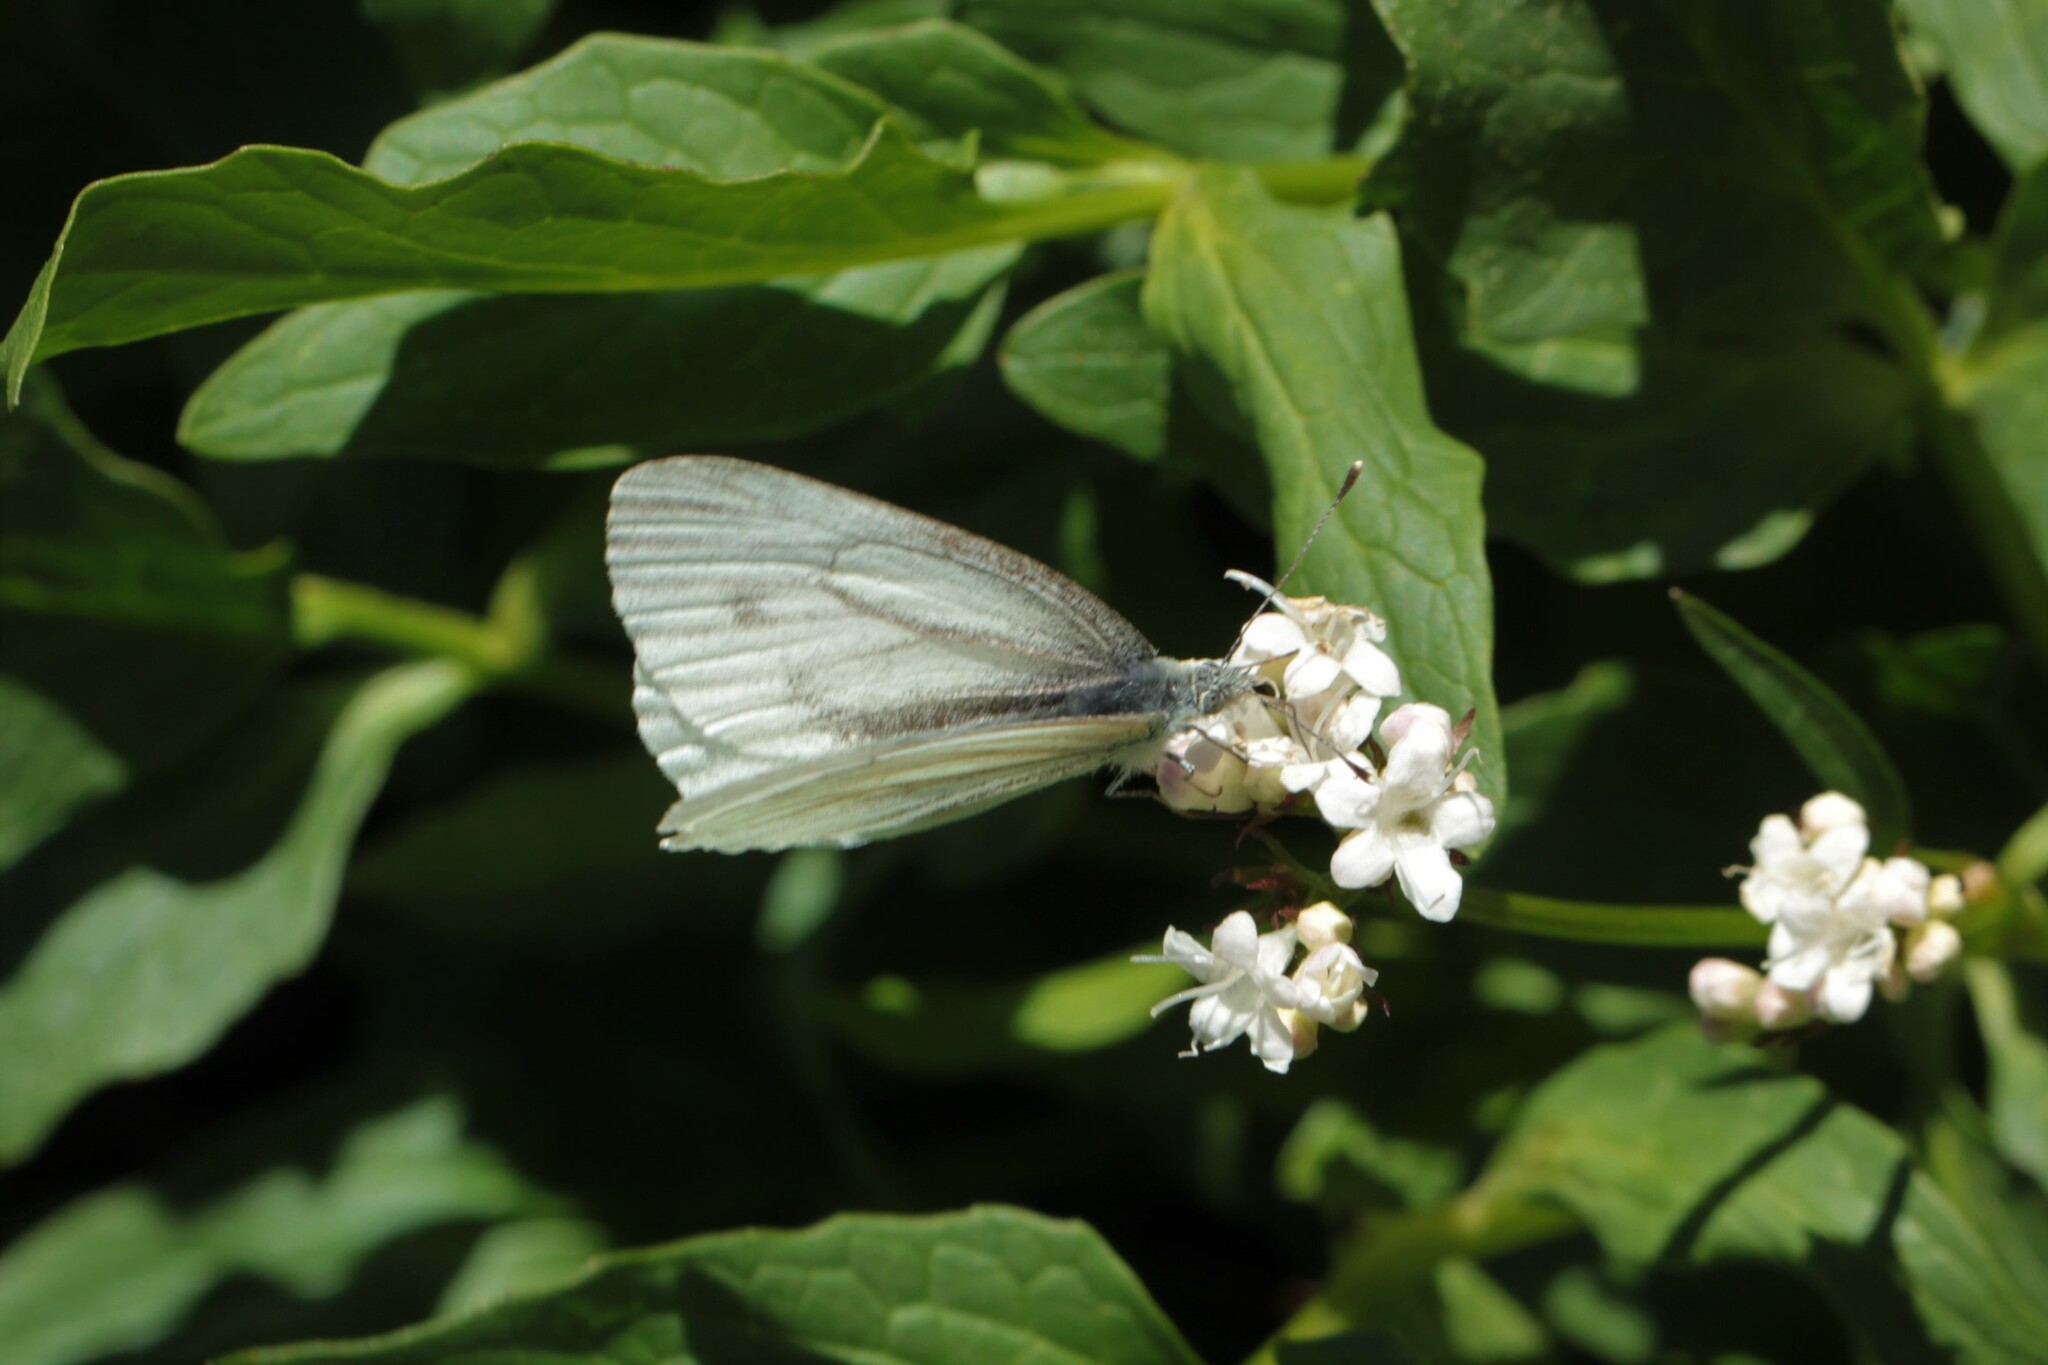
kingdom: Animalia
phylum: Arthropoda
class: Insecta
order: Lepidoptera
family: Pieridae
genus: Pieris
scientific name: Pieris marginalis
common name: Margined white
